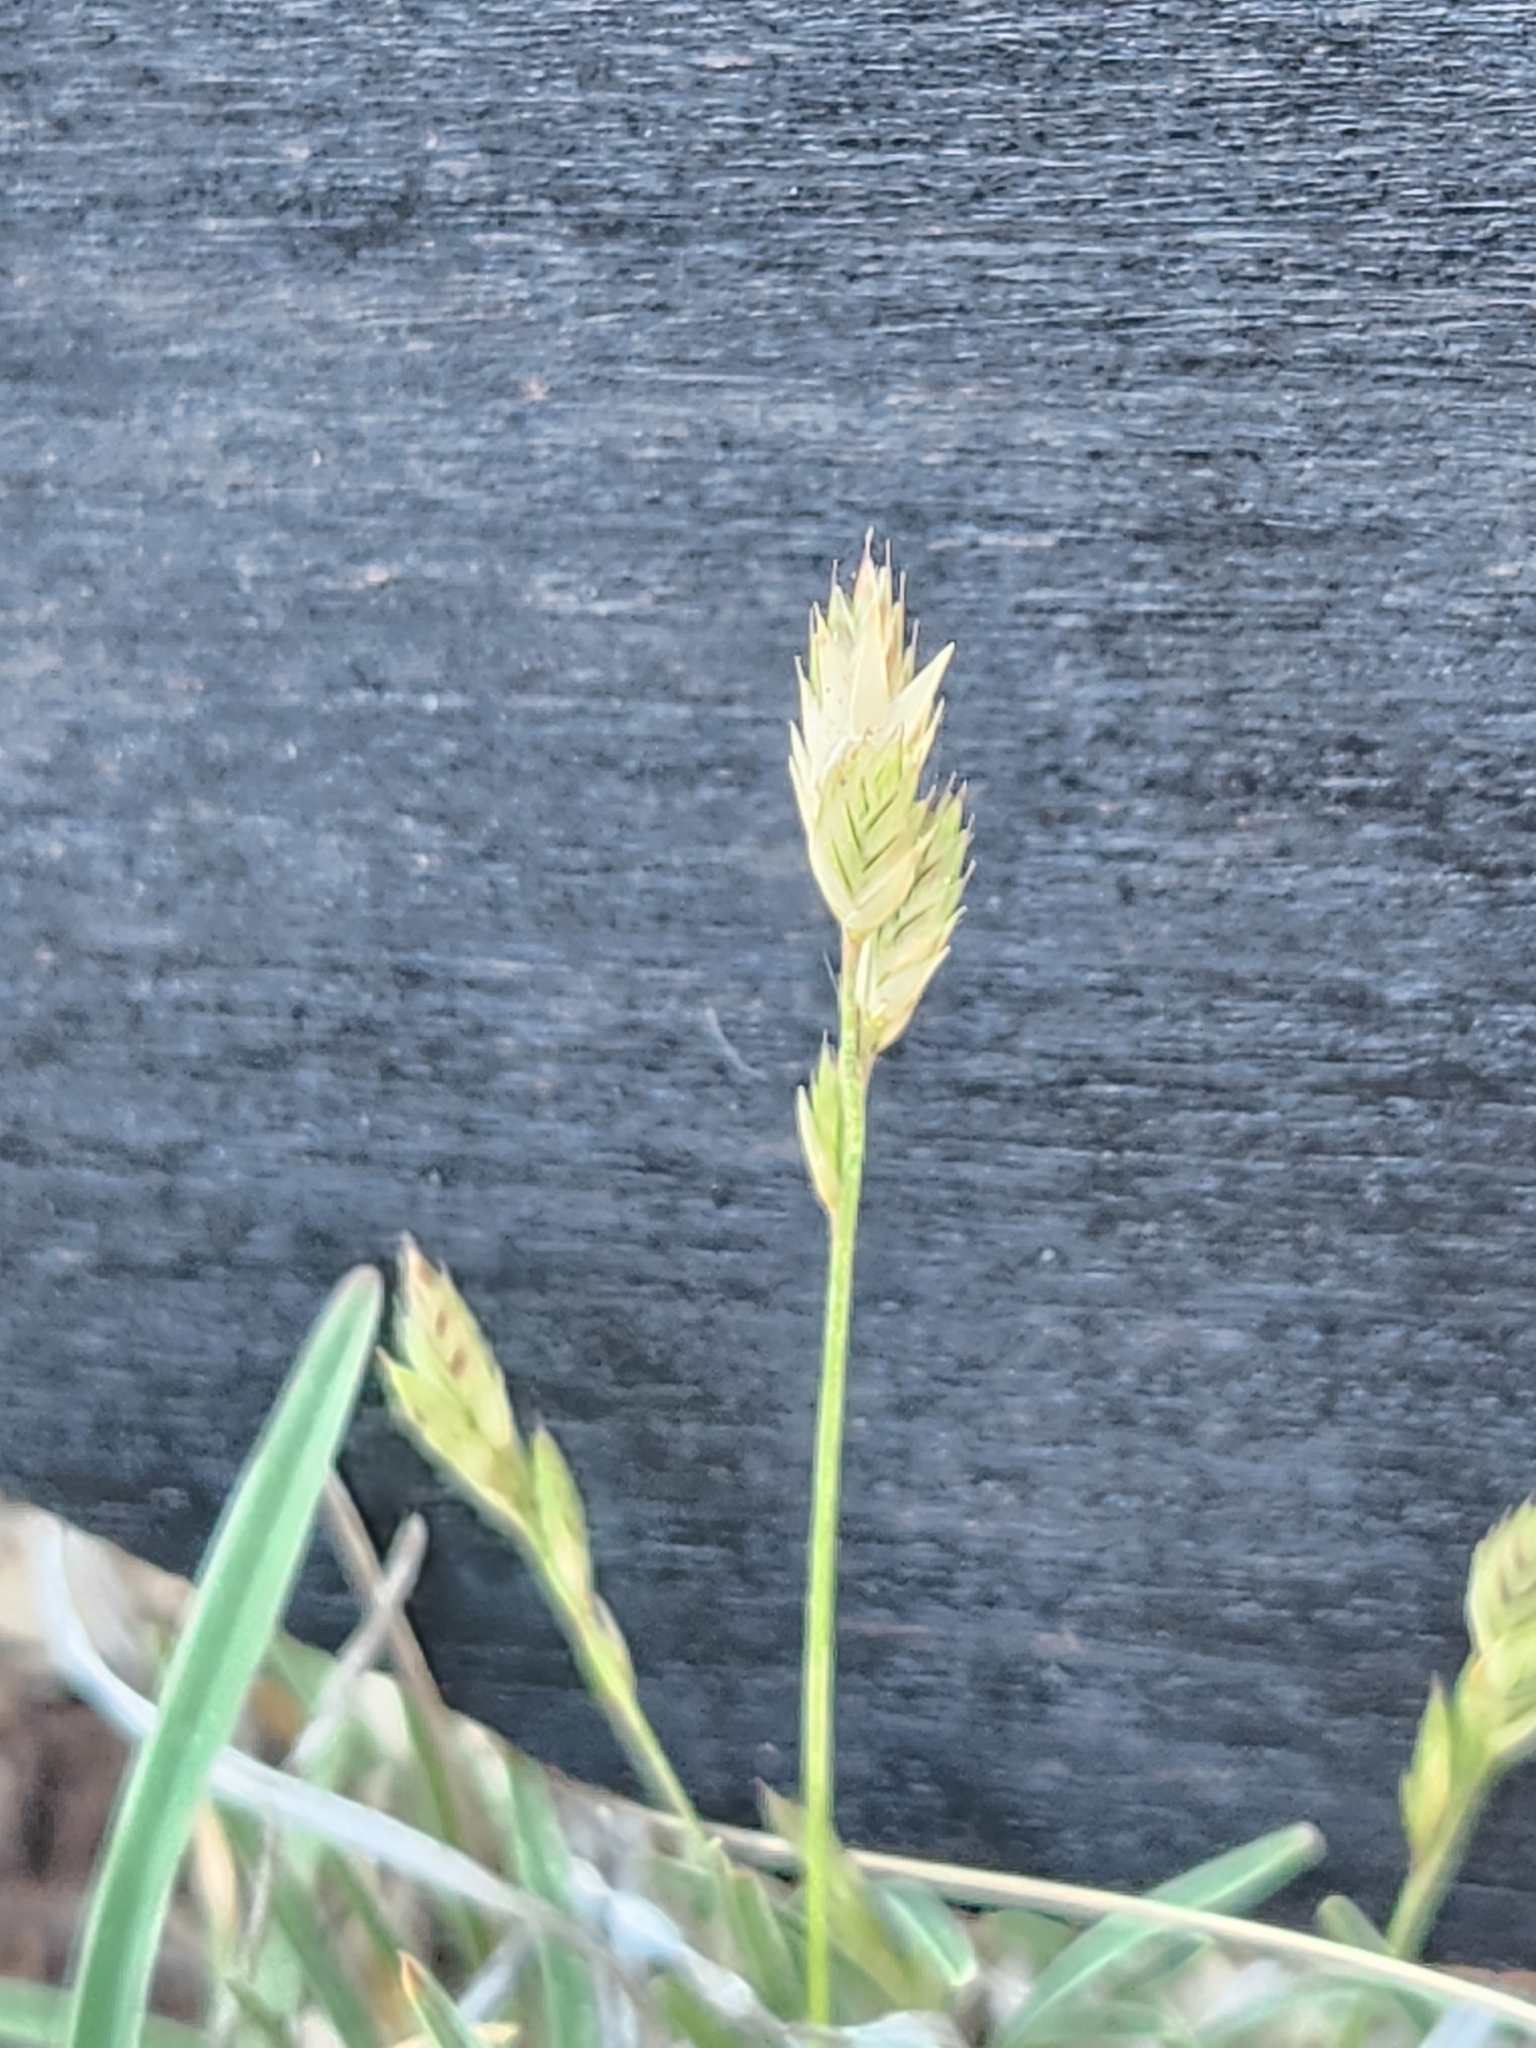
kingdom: Plantae
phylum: Tracheophyta
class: Liliopsida
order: Poales
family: Poaceae
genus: Erioneuron
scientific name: Erioneuron pilosum
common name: Hairy woolly grass
